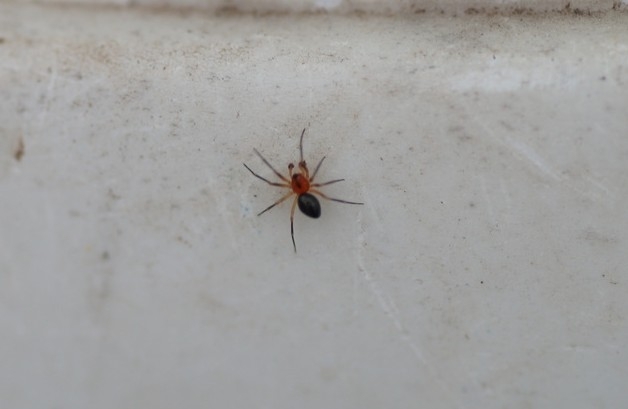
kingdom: Animalia
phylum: Arthropoda
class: Arachnida
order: Araneae
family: Linyphiidae
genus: Trematocephalus
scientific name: Trematocephalus cristatus
